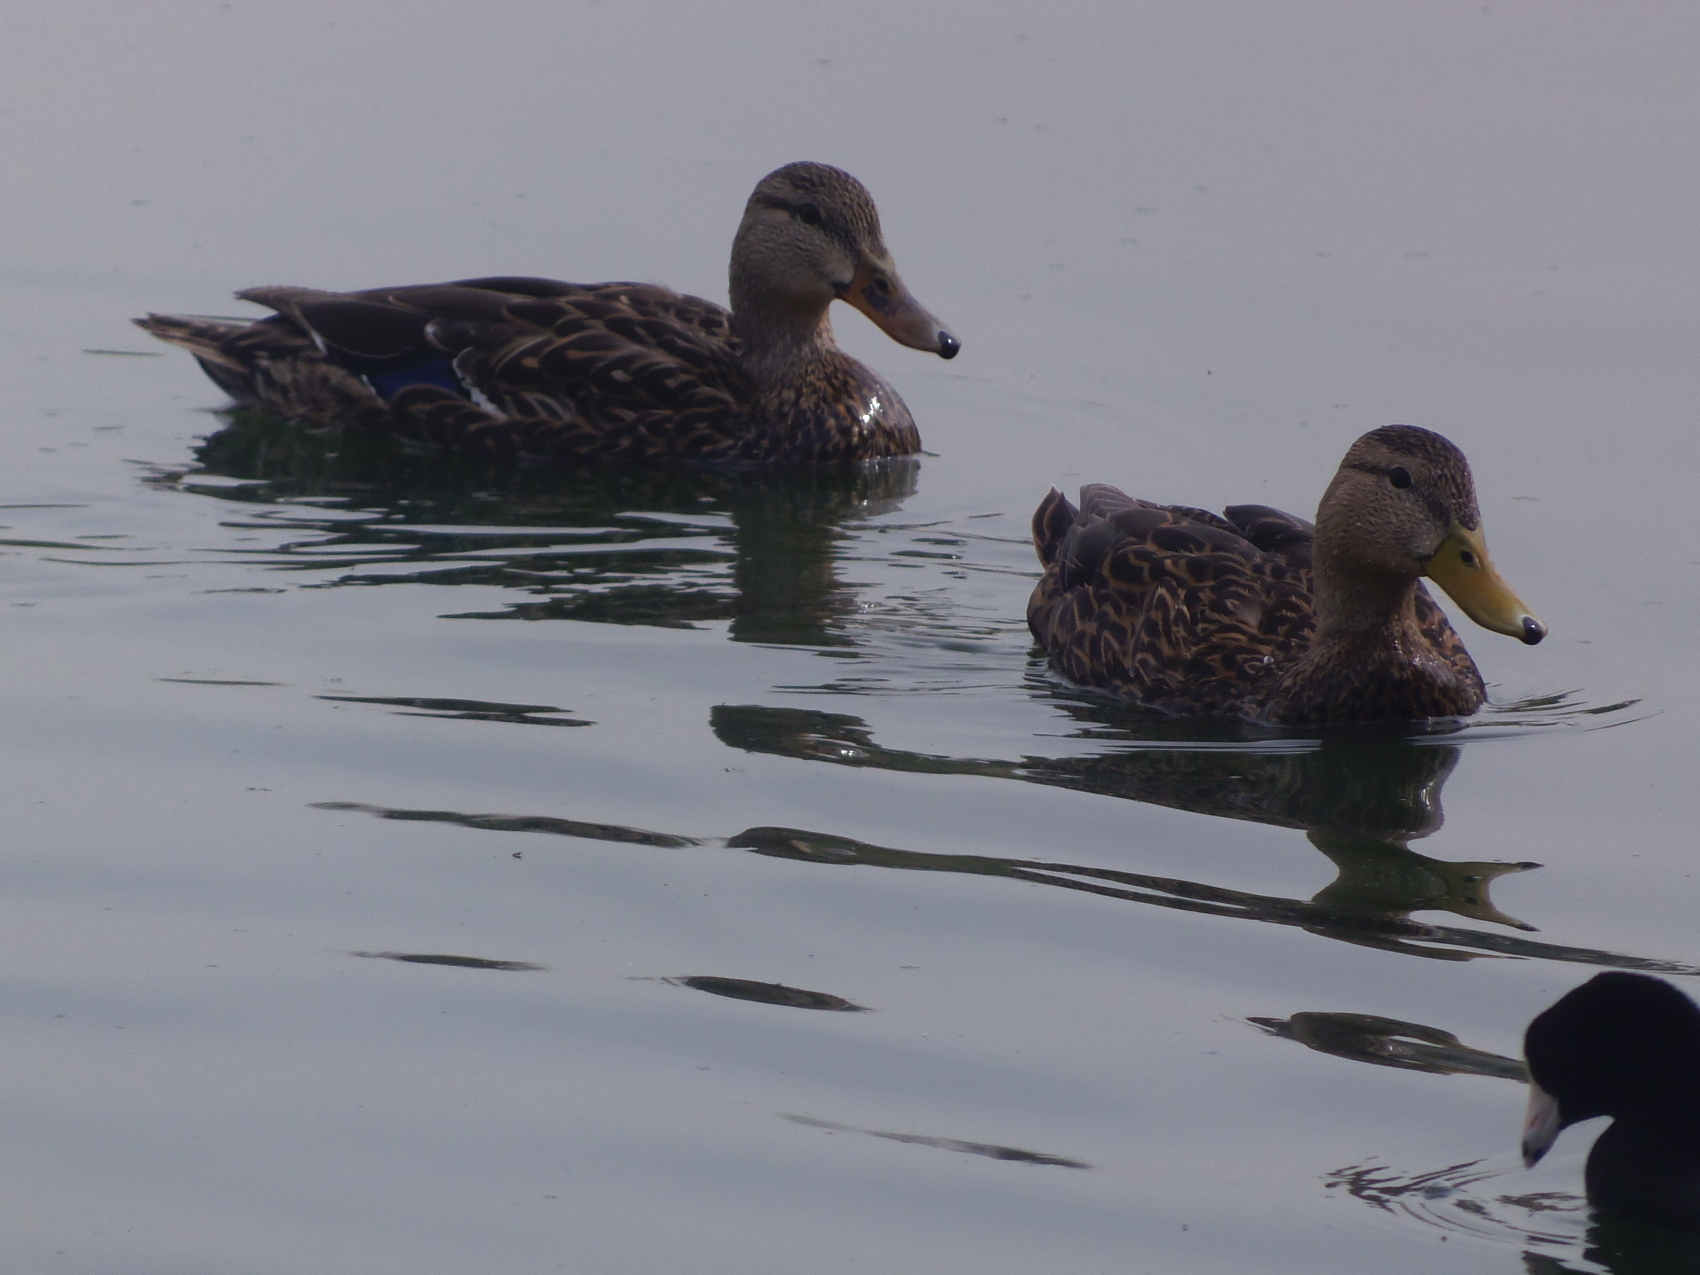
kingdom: Animalia
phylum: Chordata
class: Aves
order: Anseriformes
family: Anatidae
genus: Anas
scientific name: Anas diazi
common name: Mexican duck
